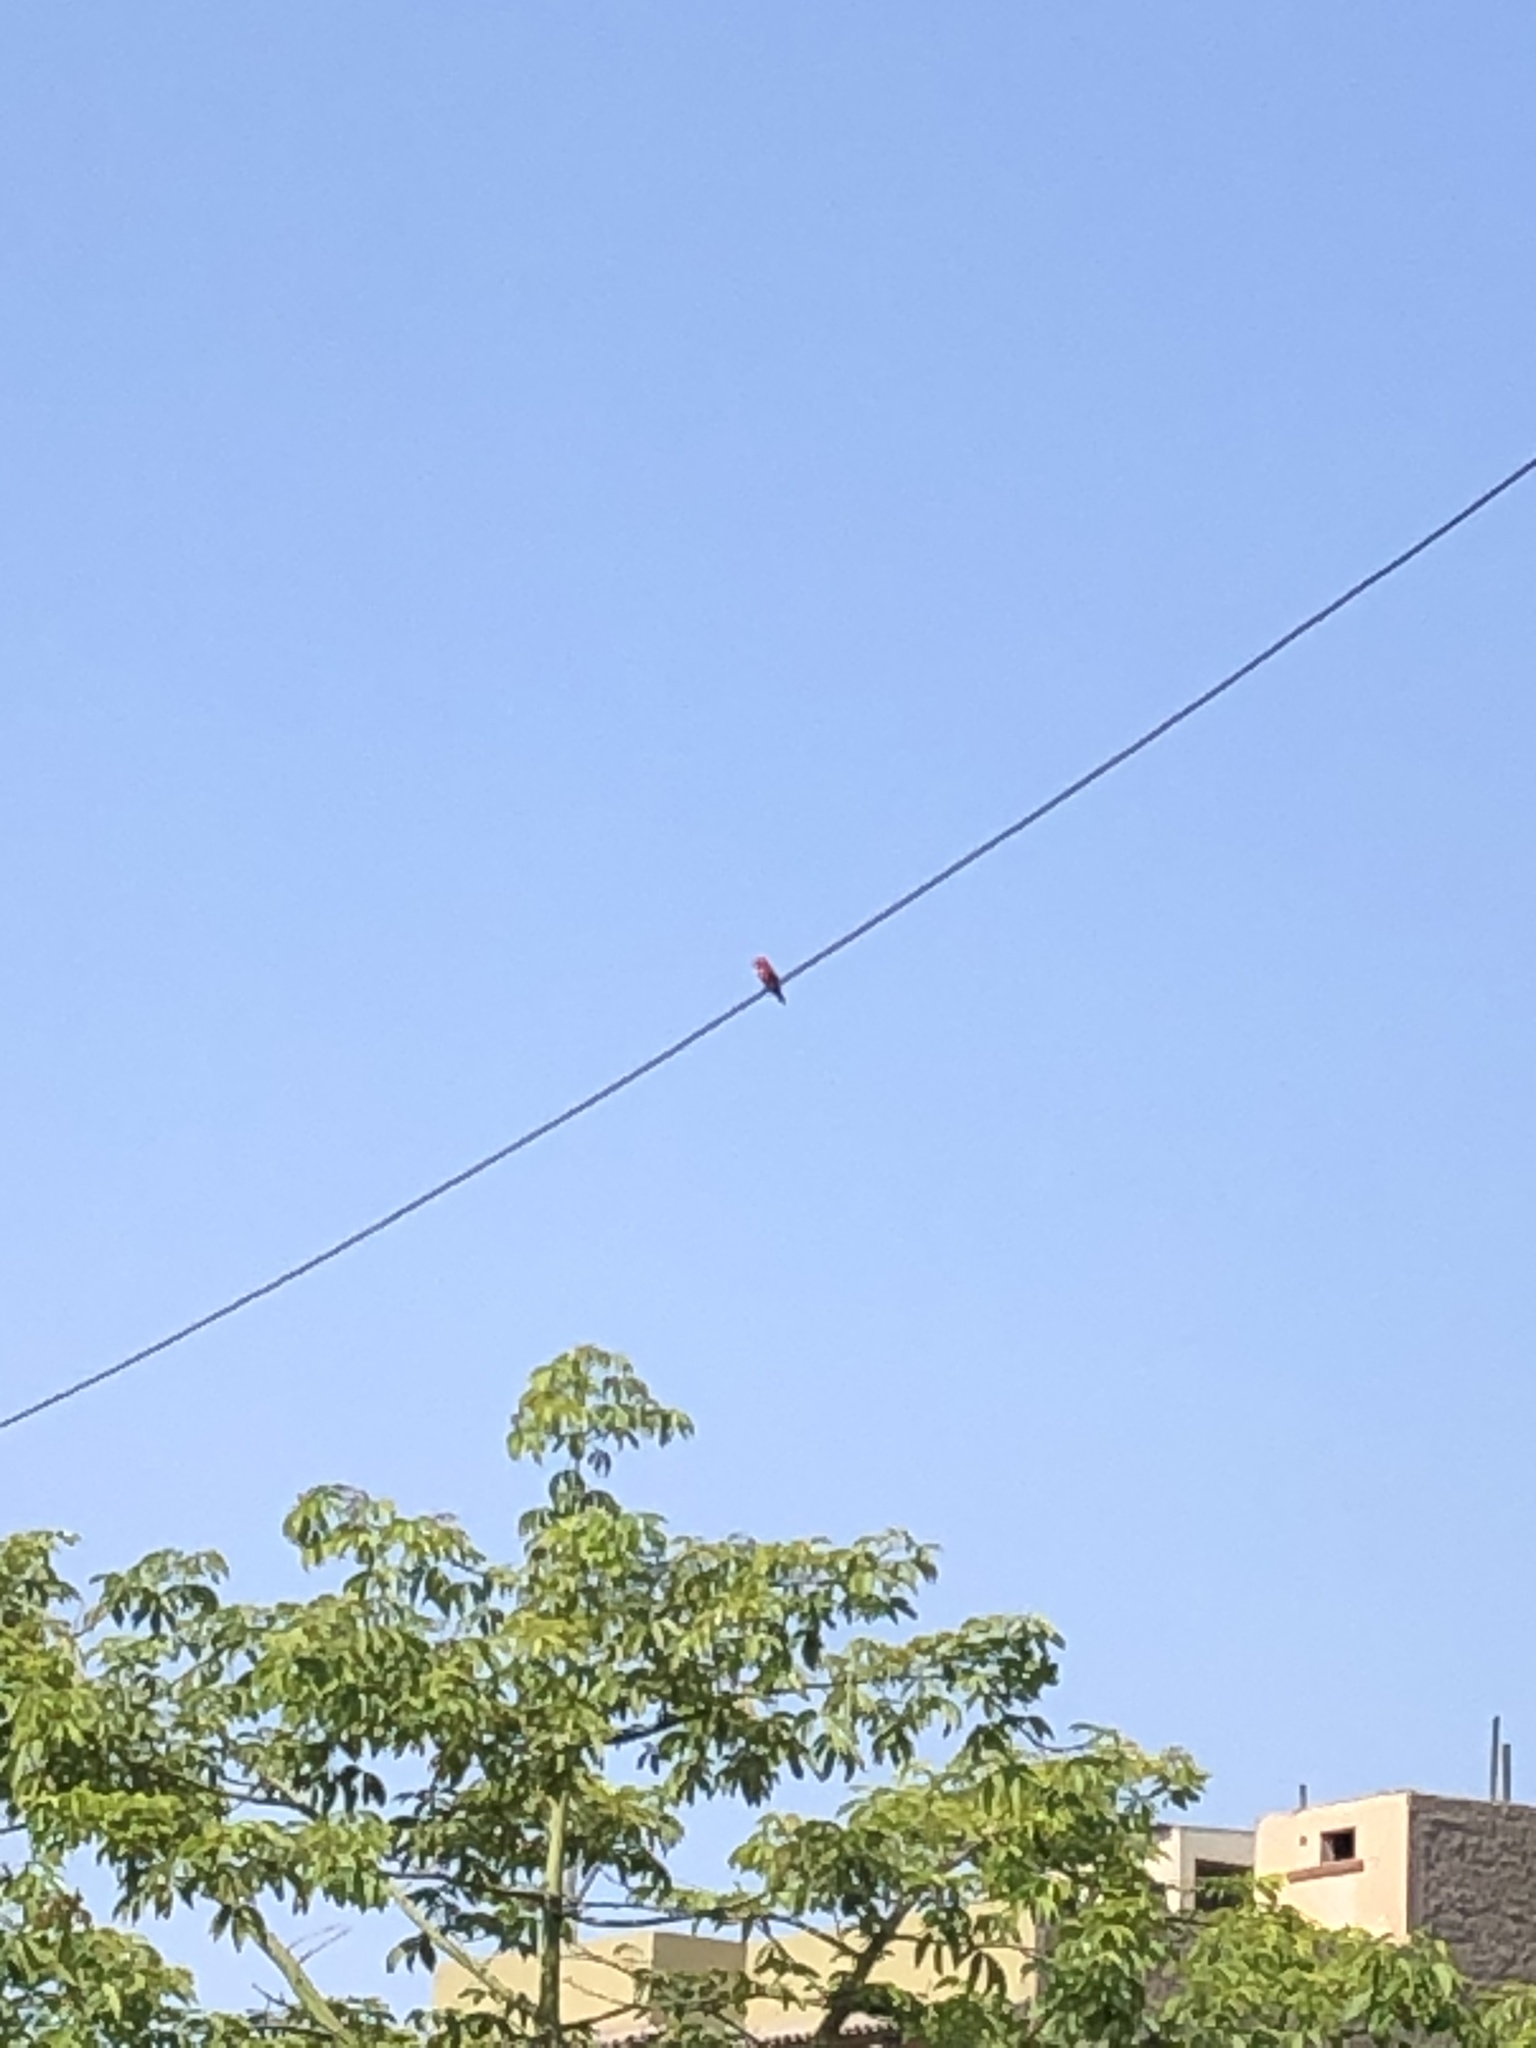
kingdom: Animalia
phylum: Chordata
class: Aves
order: Passeriformes
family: Tyrannidae
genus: Pyrocephalus
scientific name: Pyrocephalus rubinus
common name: Vermilion flycatcher
